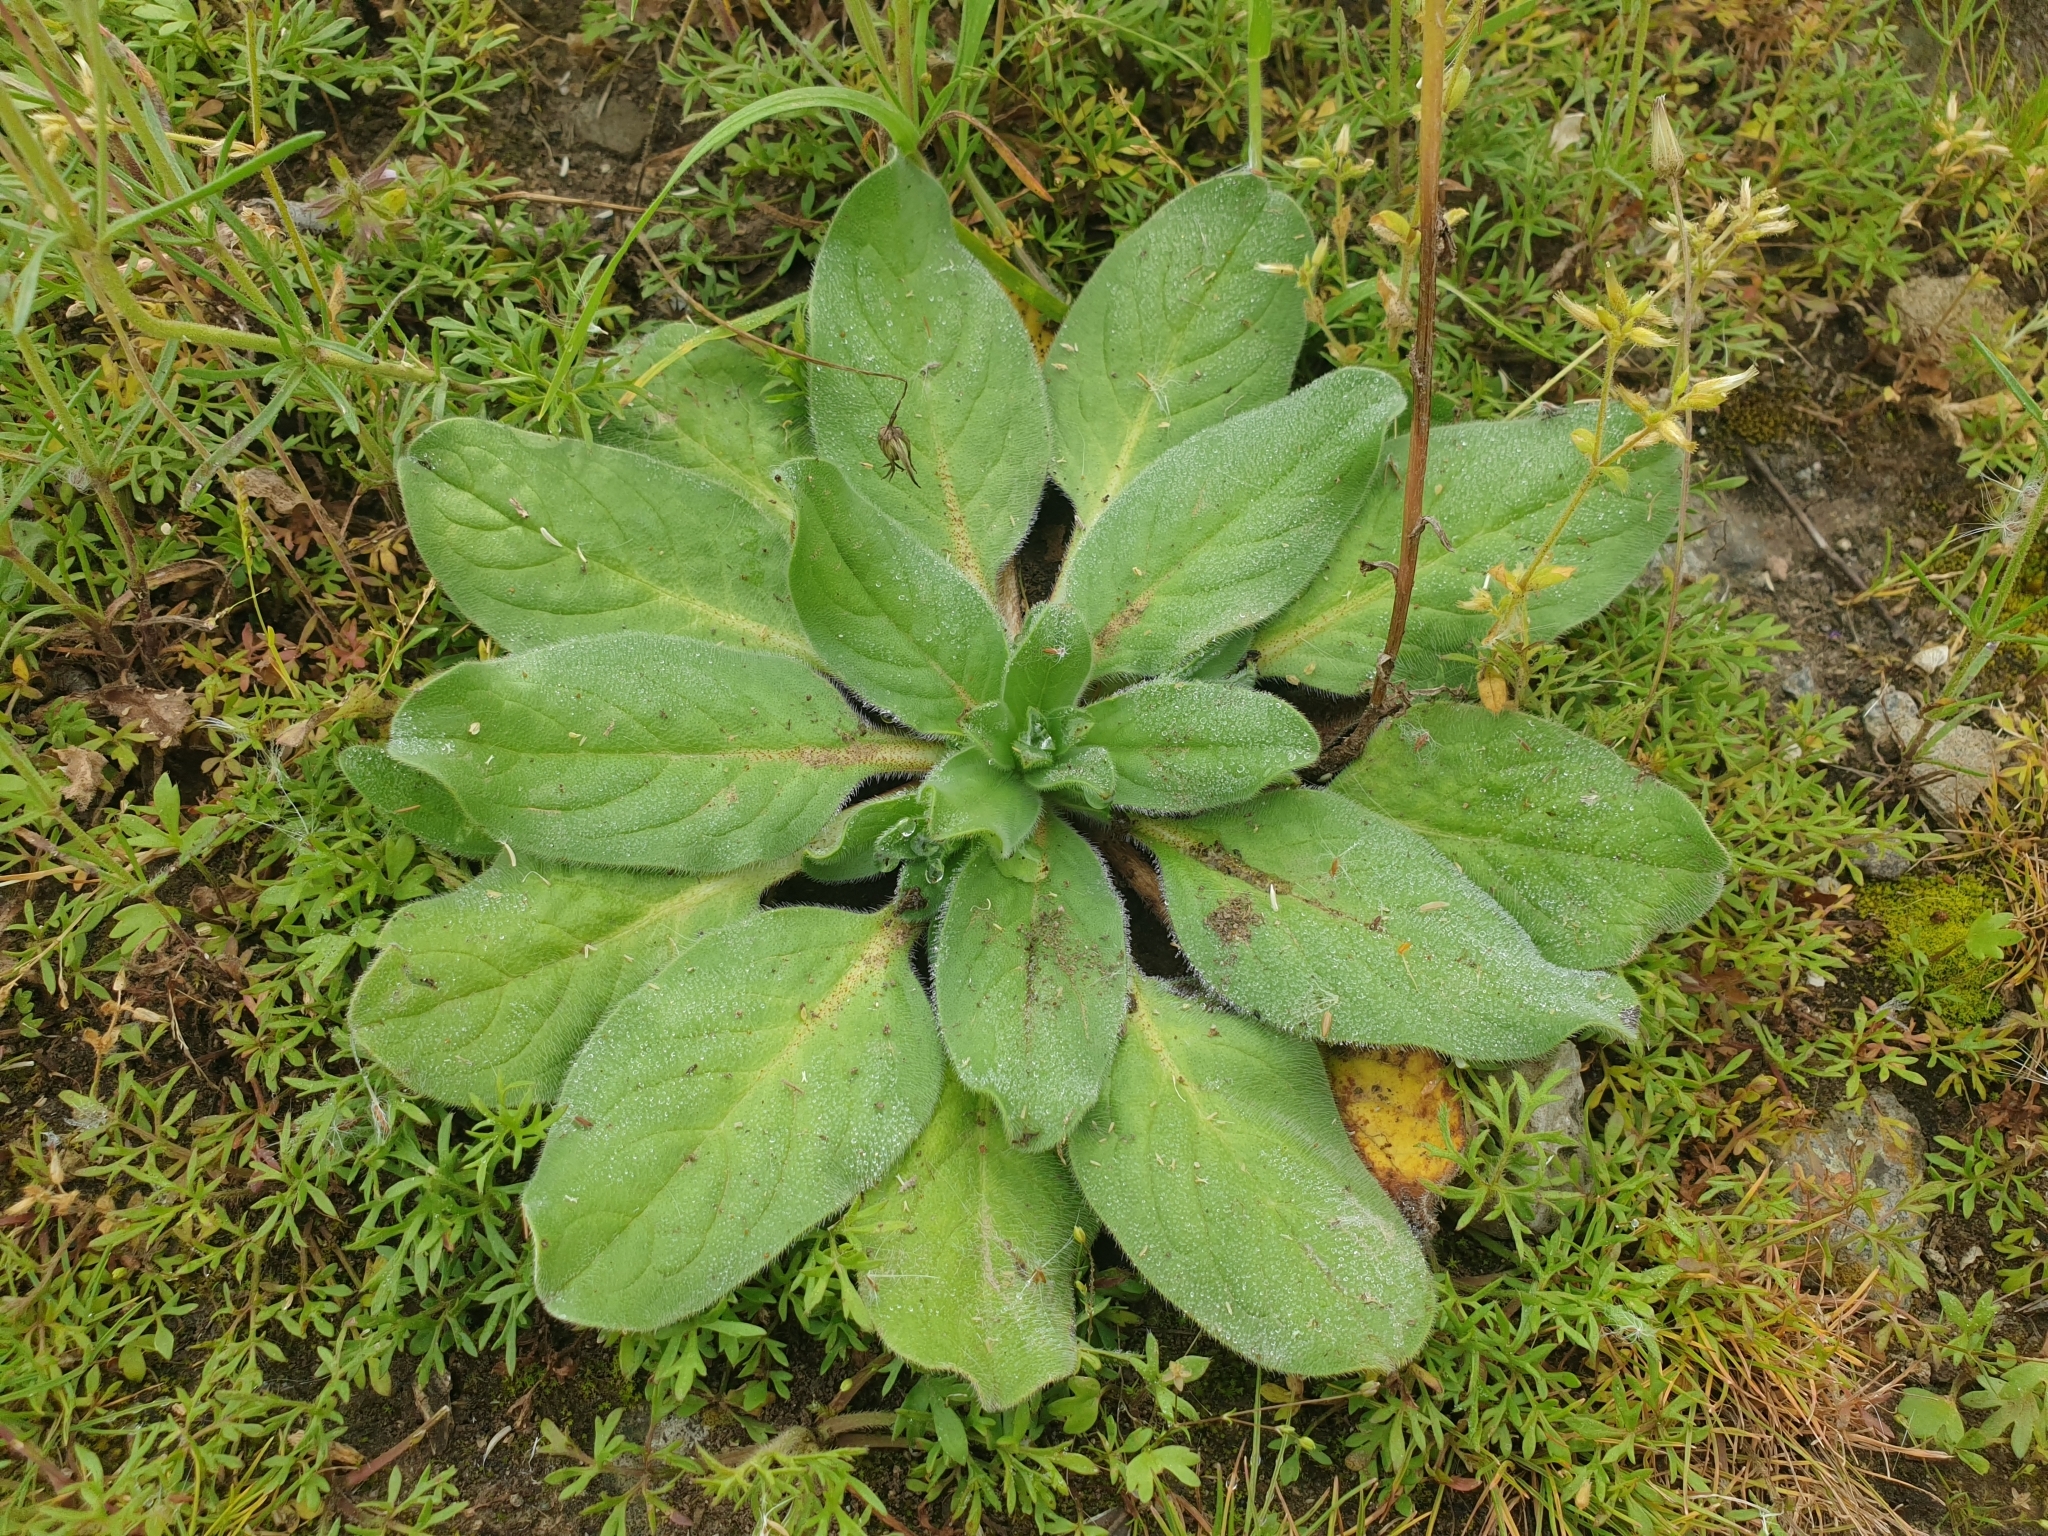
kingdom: Plantae
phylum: Tracheophyta
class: Magnoliopsida
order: Boraginales
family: Boraginaceae
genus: Echium
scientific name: Echium plantagineum
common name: Purple viper's-bugloss
